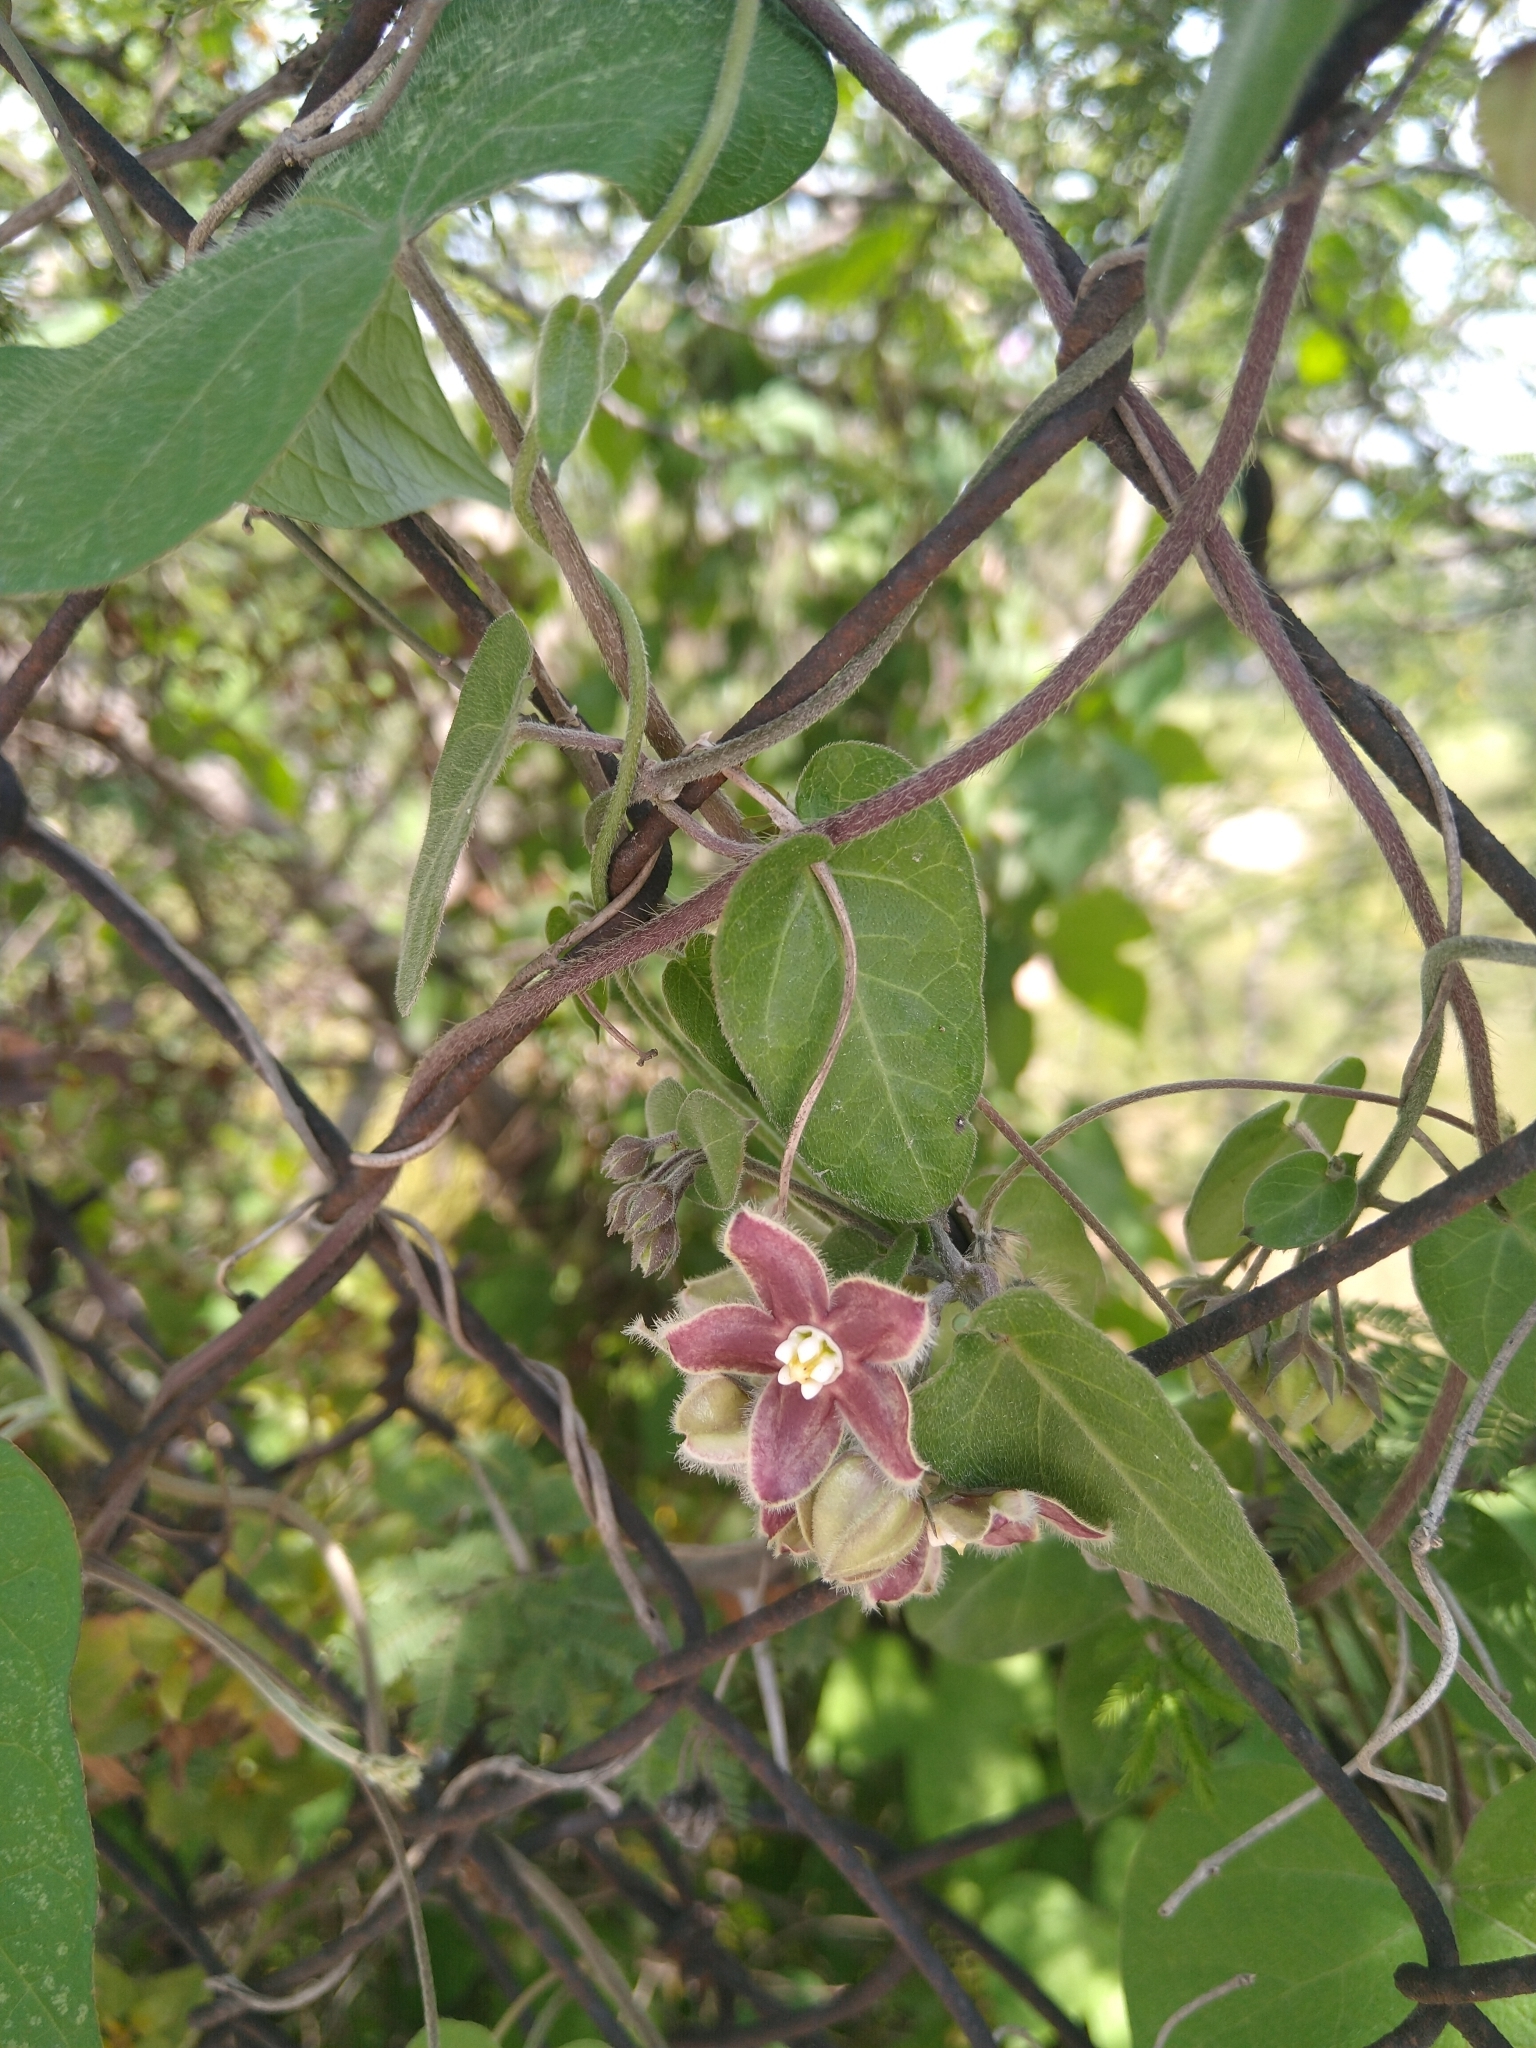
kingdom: Plantae
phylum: Tracheophyta
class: Magnoliopsida
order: Gentianales
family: Apocynaceae
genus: Funastrum
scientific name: Funastrum elegans
